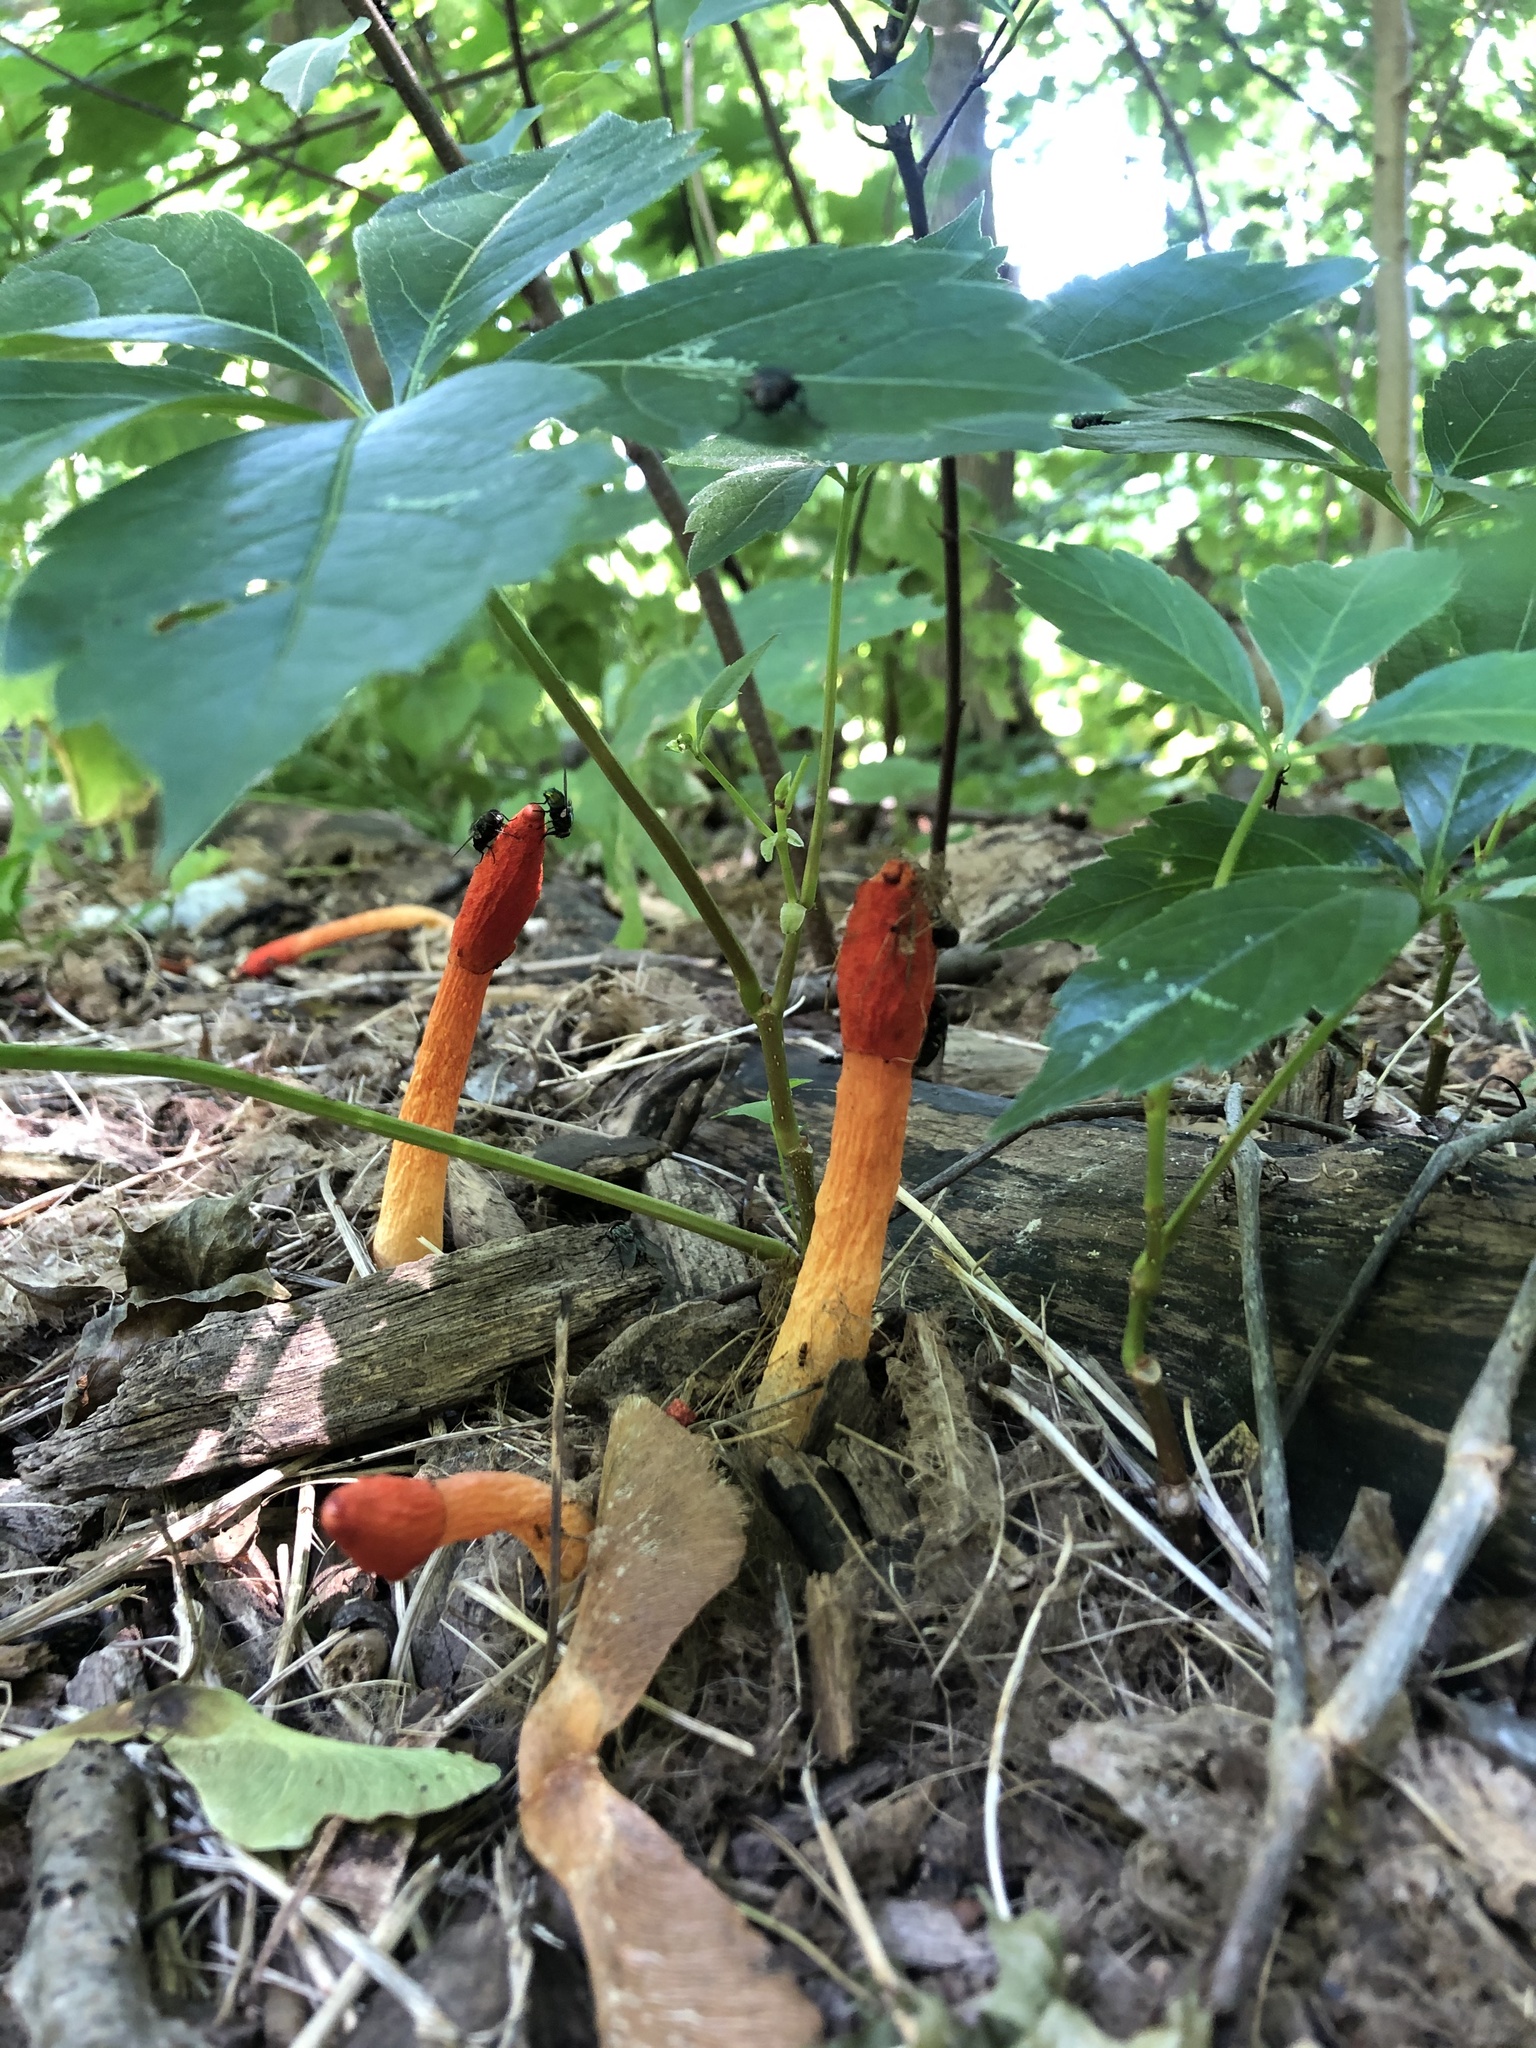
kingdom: Fungi
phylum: Basidiomycota
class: Agaricomycetes
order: Phallales
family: Phallaceae
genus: Phallus
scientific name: Phallus rugulosus
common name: Wrinkly stinkhorn
